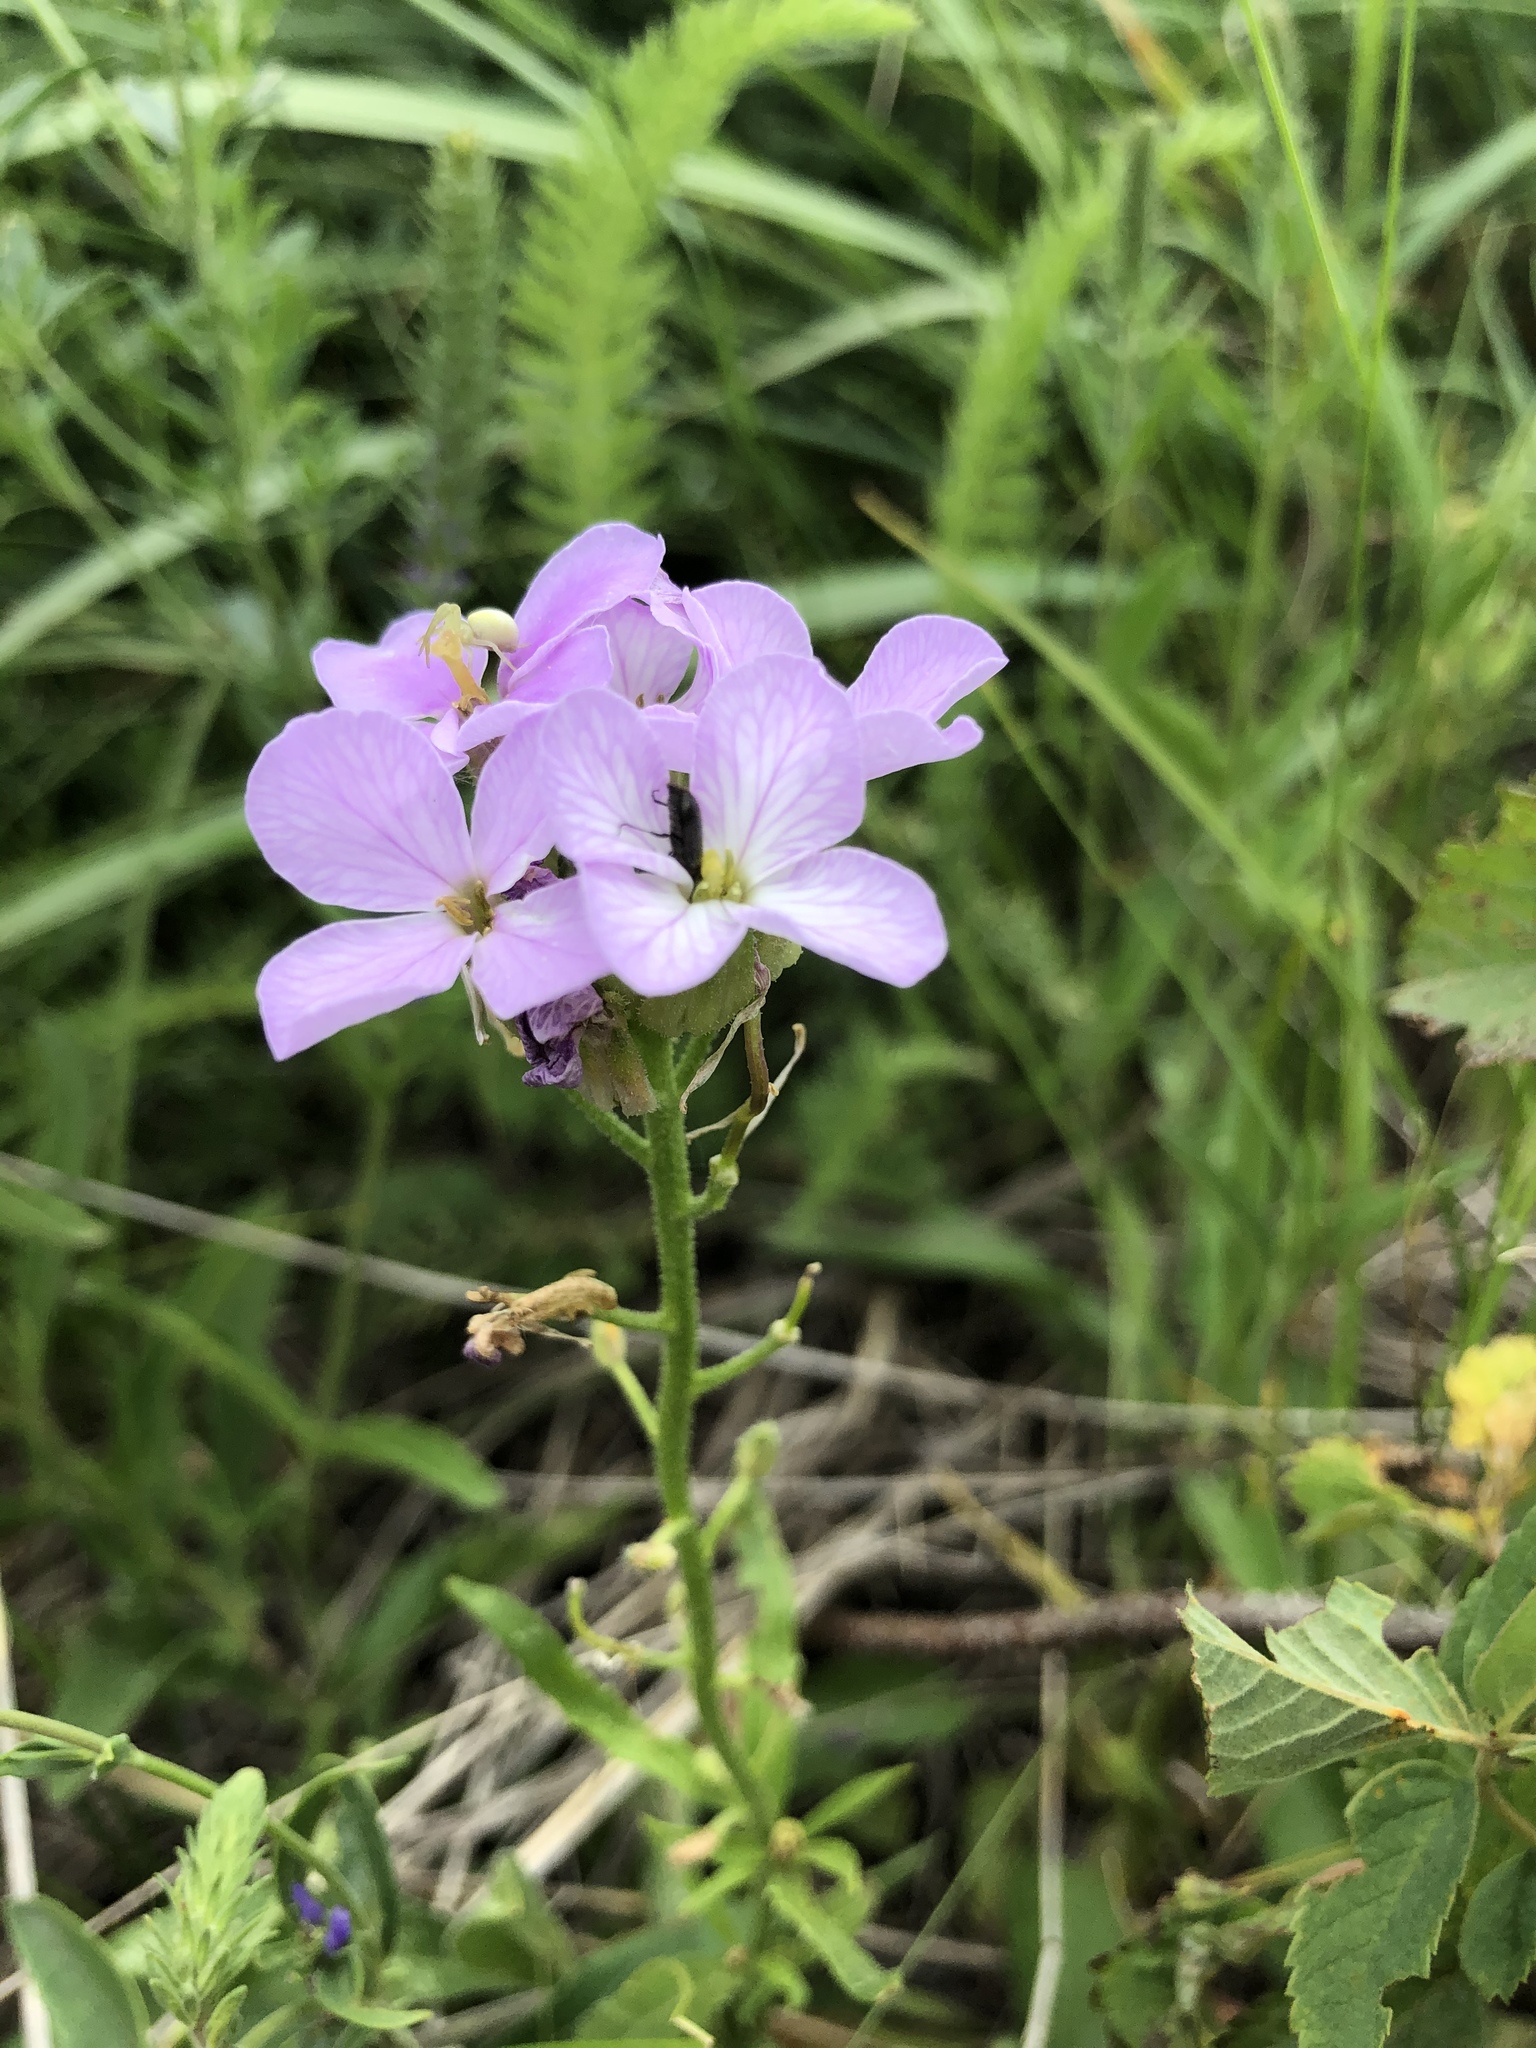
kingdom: Plantae
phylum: Tracheophyta
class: Magnoliopsida
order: Brassicales
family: Brassicaceae
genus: Clausia
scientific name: Clausia aprica
